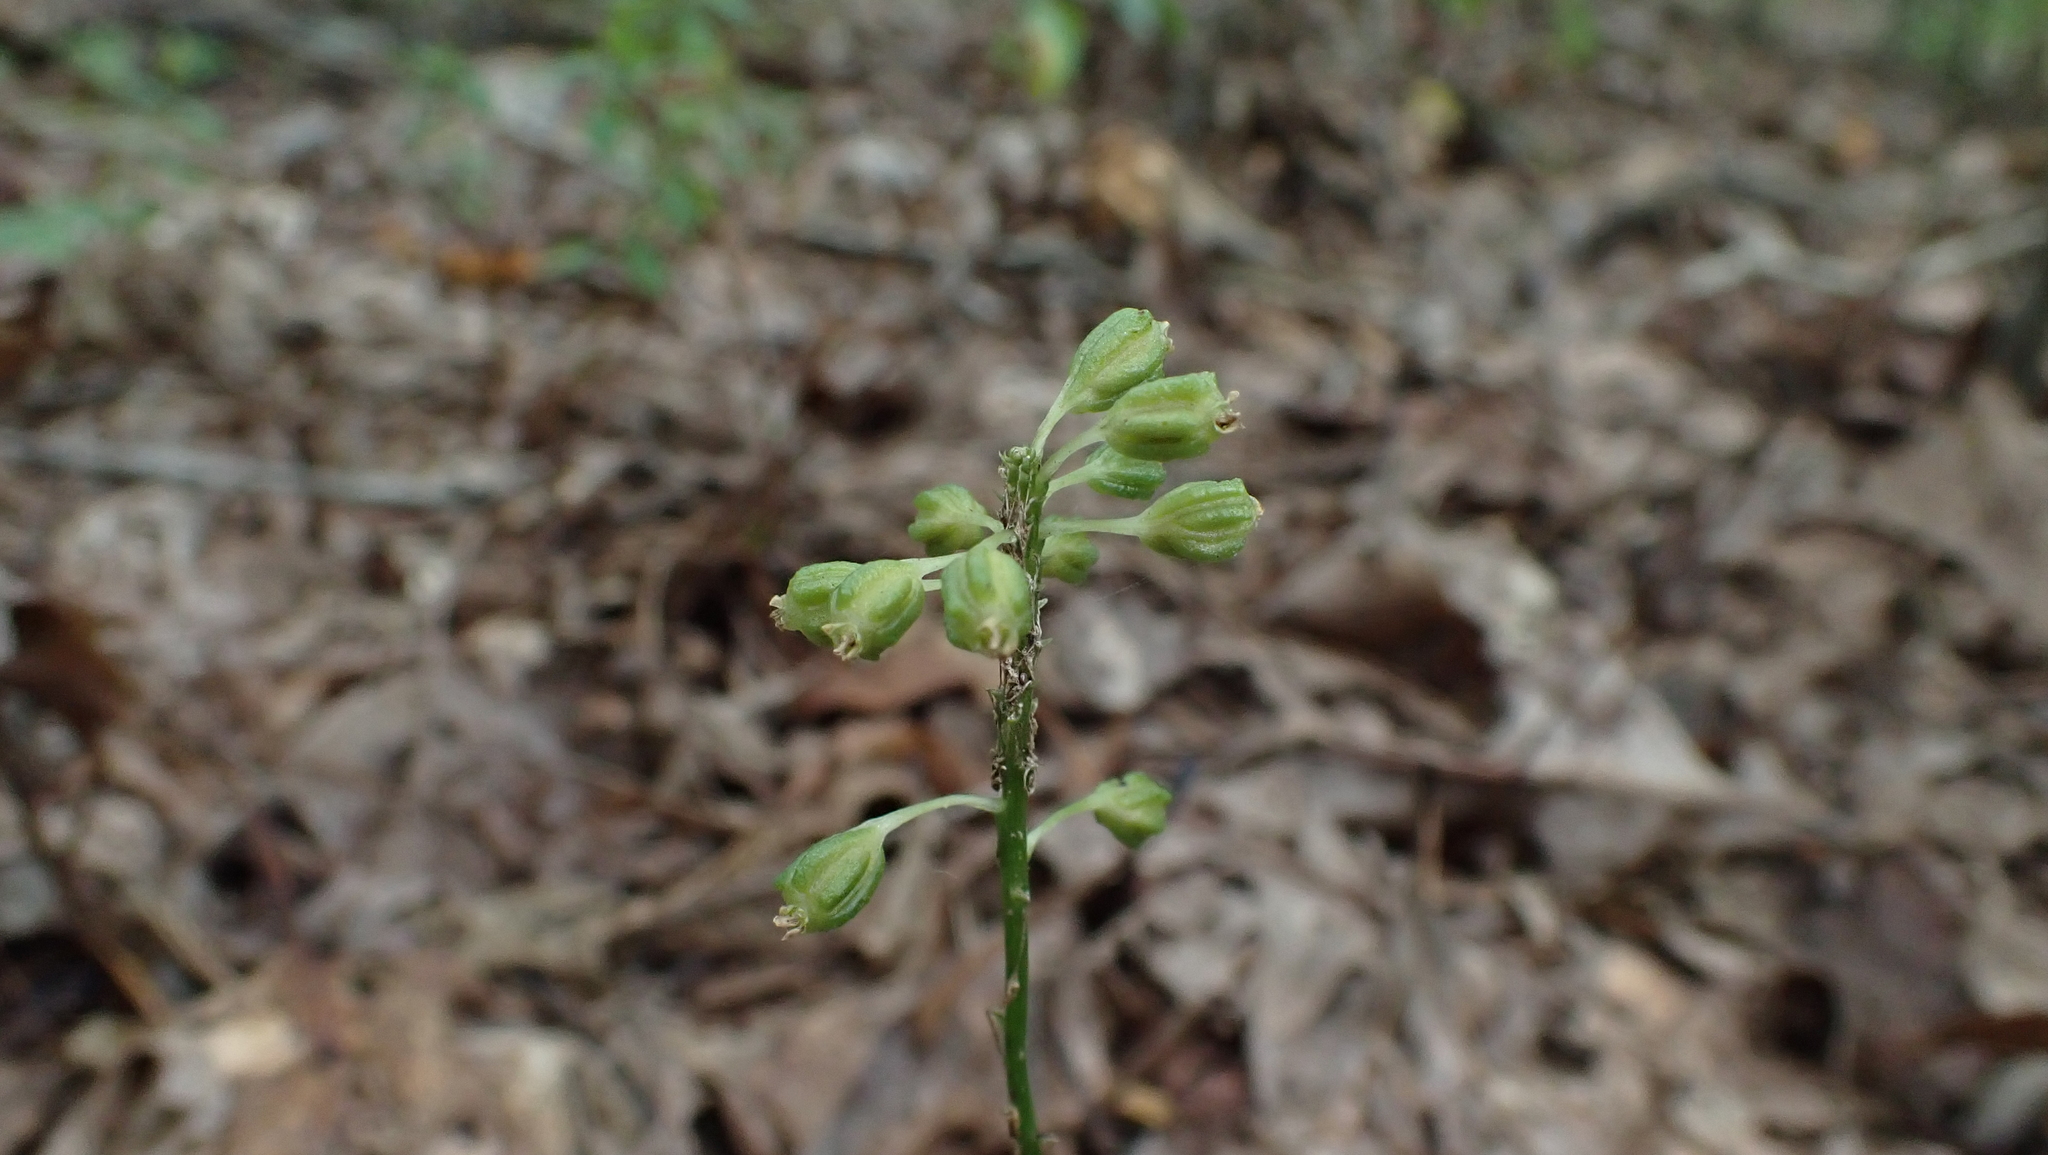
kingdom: Plantae
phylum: Tracheophyta
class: Liliopsida
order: Asparagales
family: Orchidaceae
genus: Malaxis
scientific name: Malaxis unifolia
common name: Green adder's-mouth
